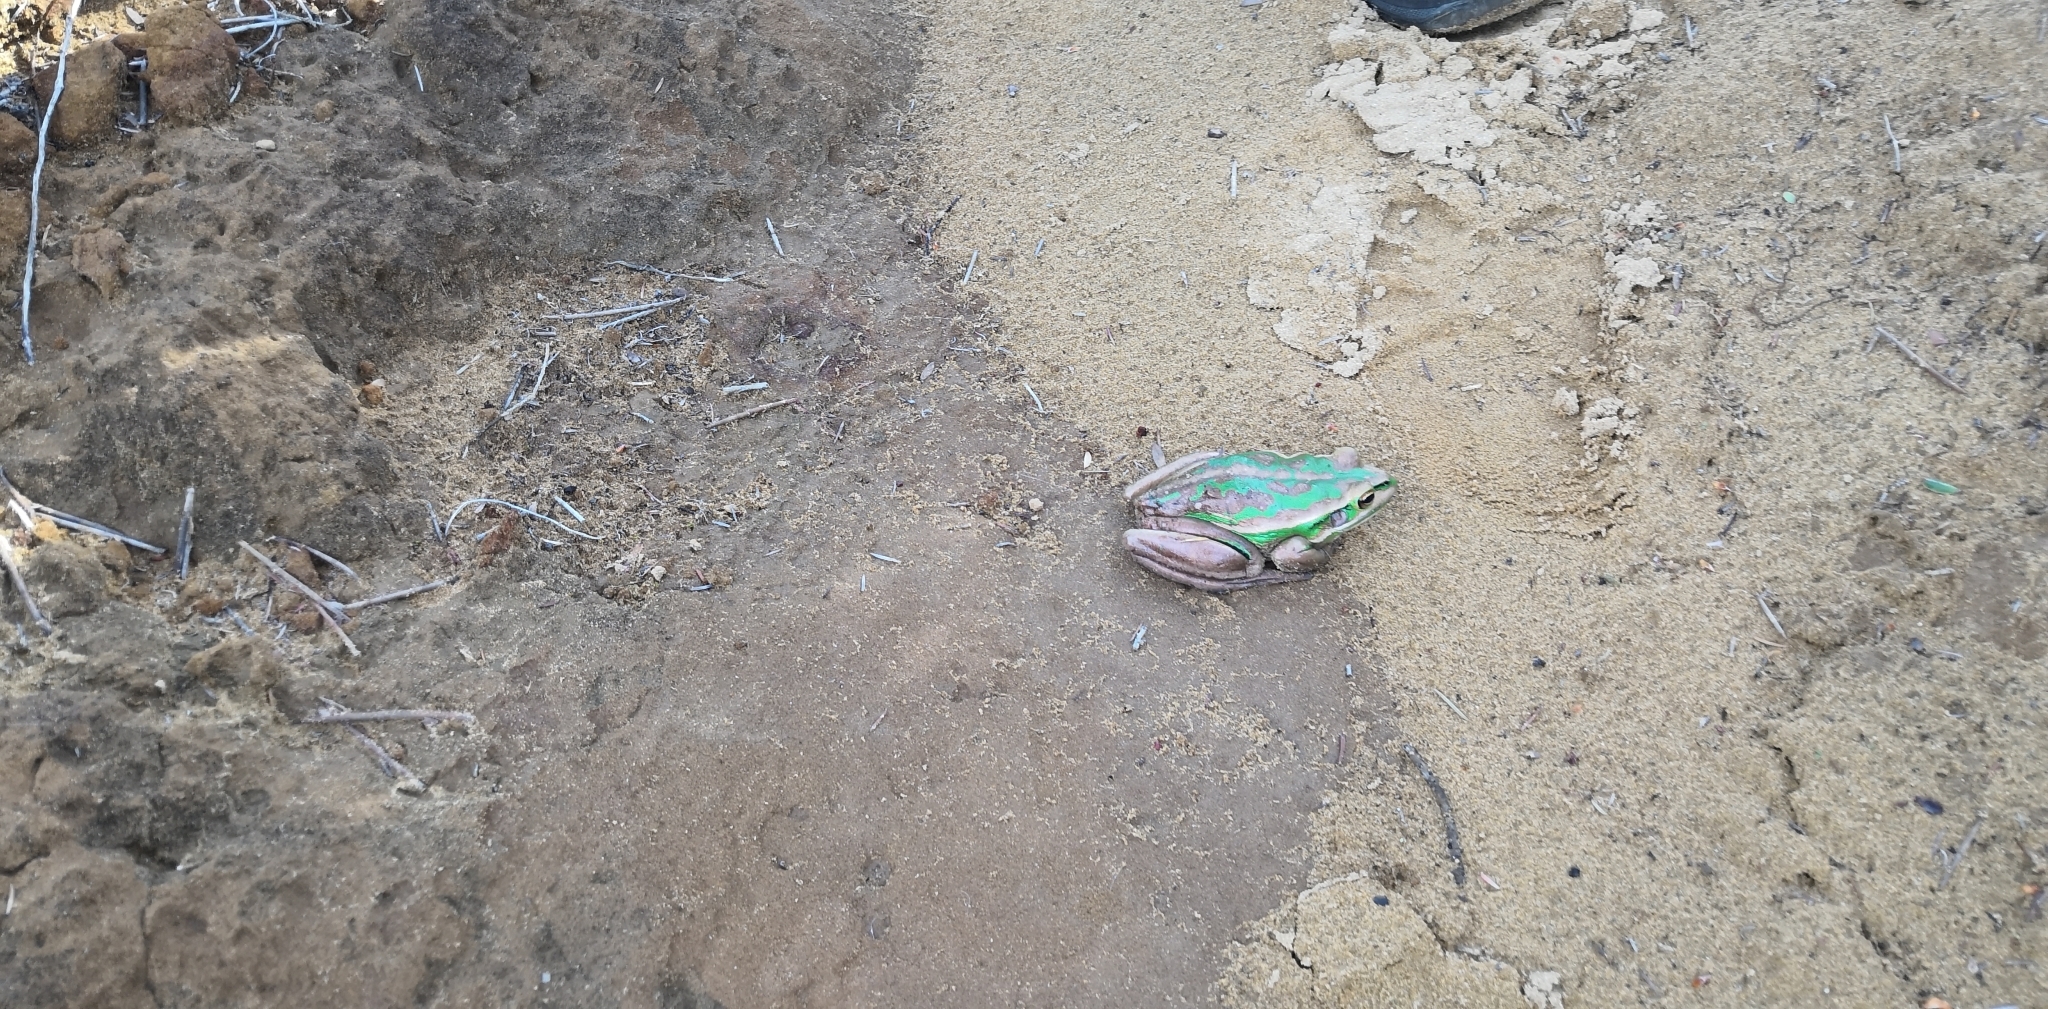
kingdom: Animalia
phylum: Chordata
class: Amphibia
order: Anura
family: Pelodryadidae
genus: Ranoidea
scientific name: Ranoidea aurea
